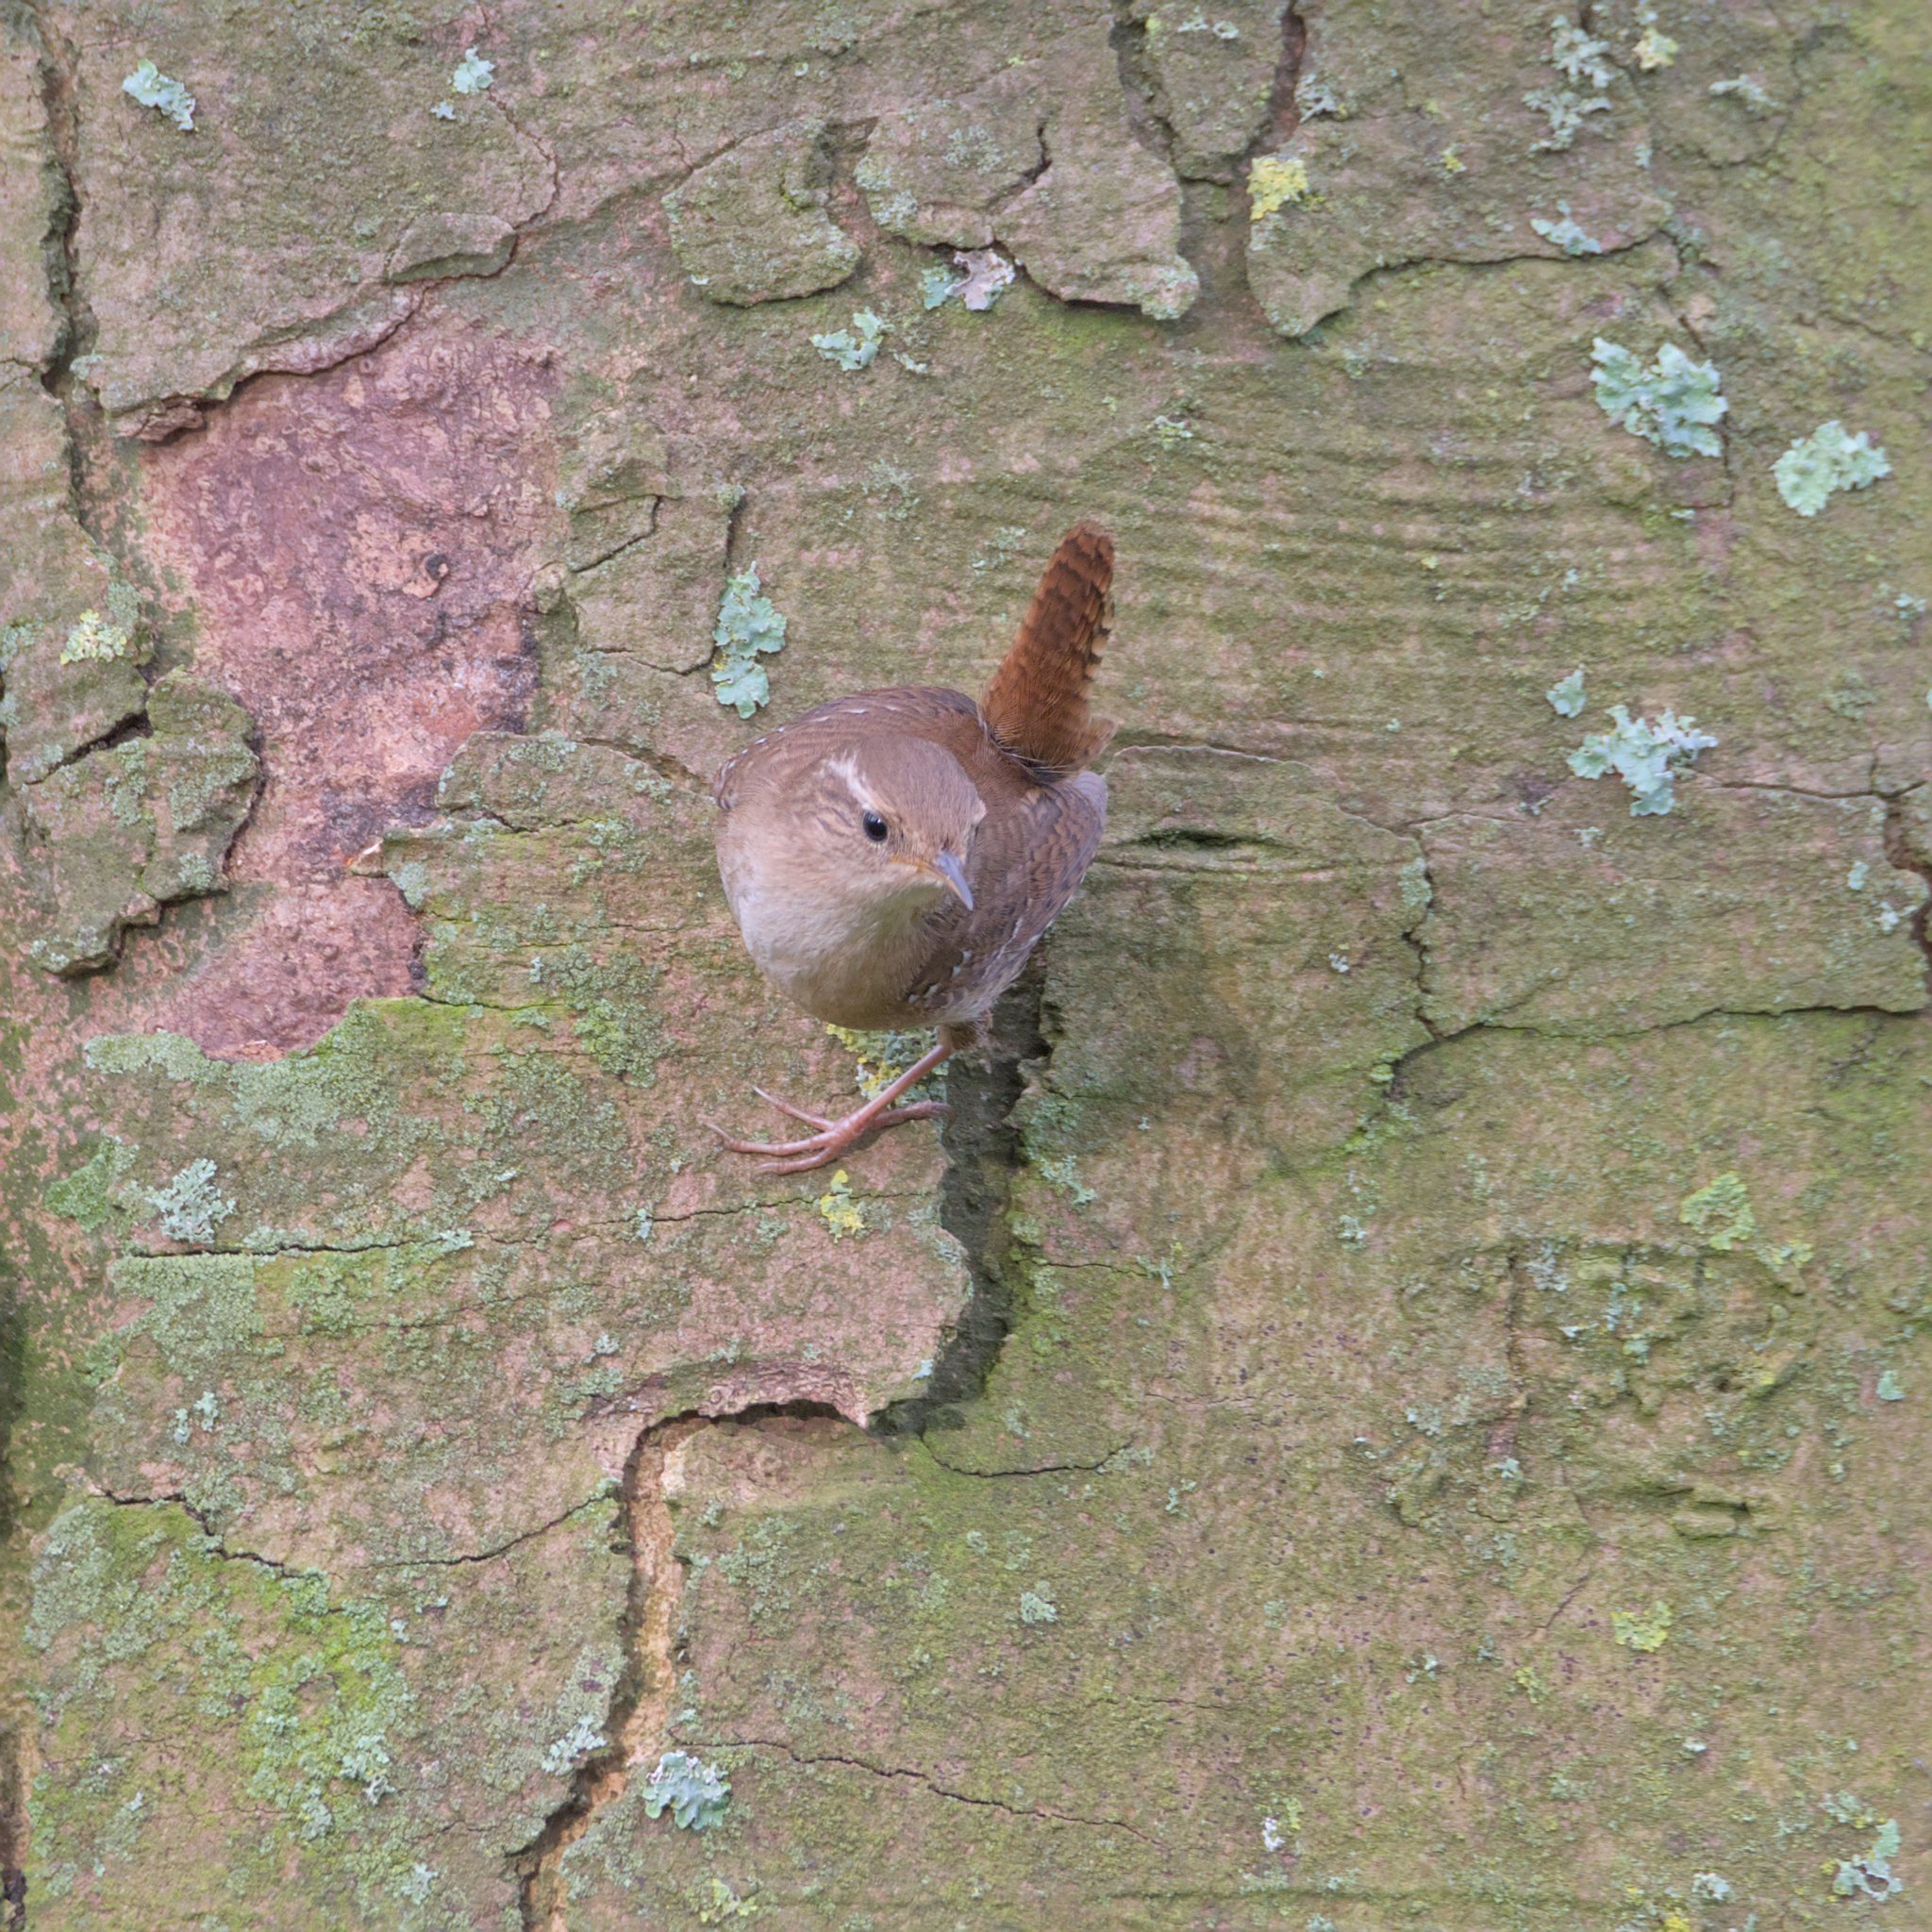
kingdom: Animalia
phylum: Chordata
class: Aves
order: Passeriformes
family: Troglodytidae
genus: Troglodytes
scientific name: Troglodytes troglodytes
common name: Eurasian wren
